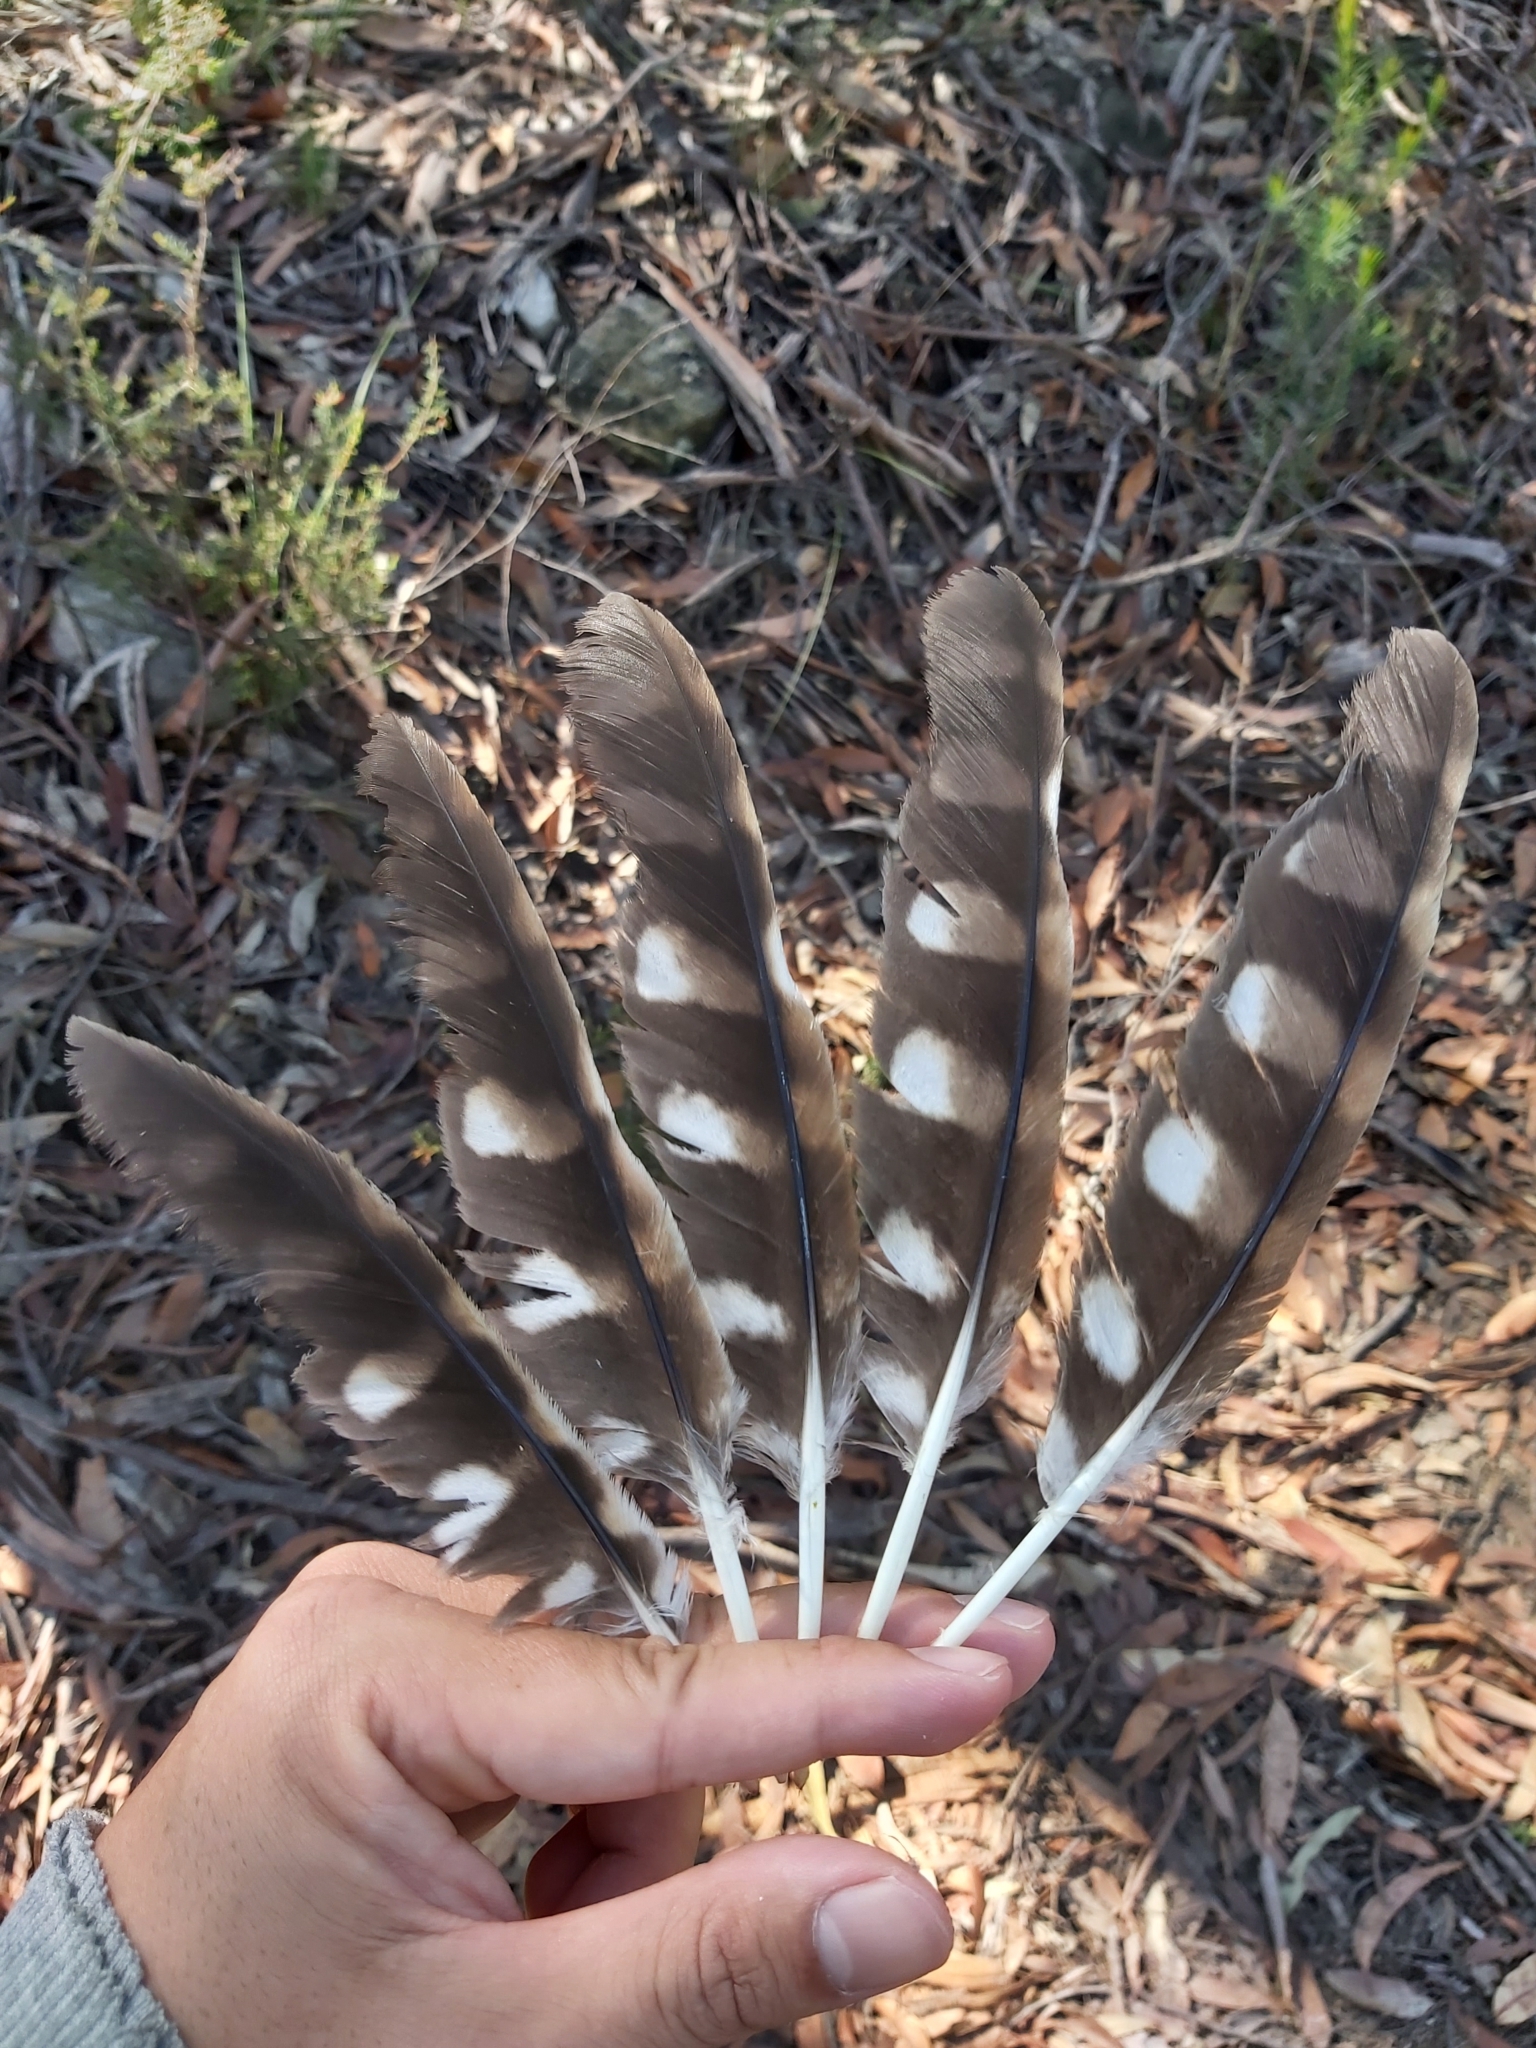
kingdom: Animalia
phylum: Chordata
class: Aves
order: Strigiformes
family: Strigidae
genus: Ninox
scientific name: Ninox boobook
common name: Southern boobook
